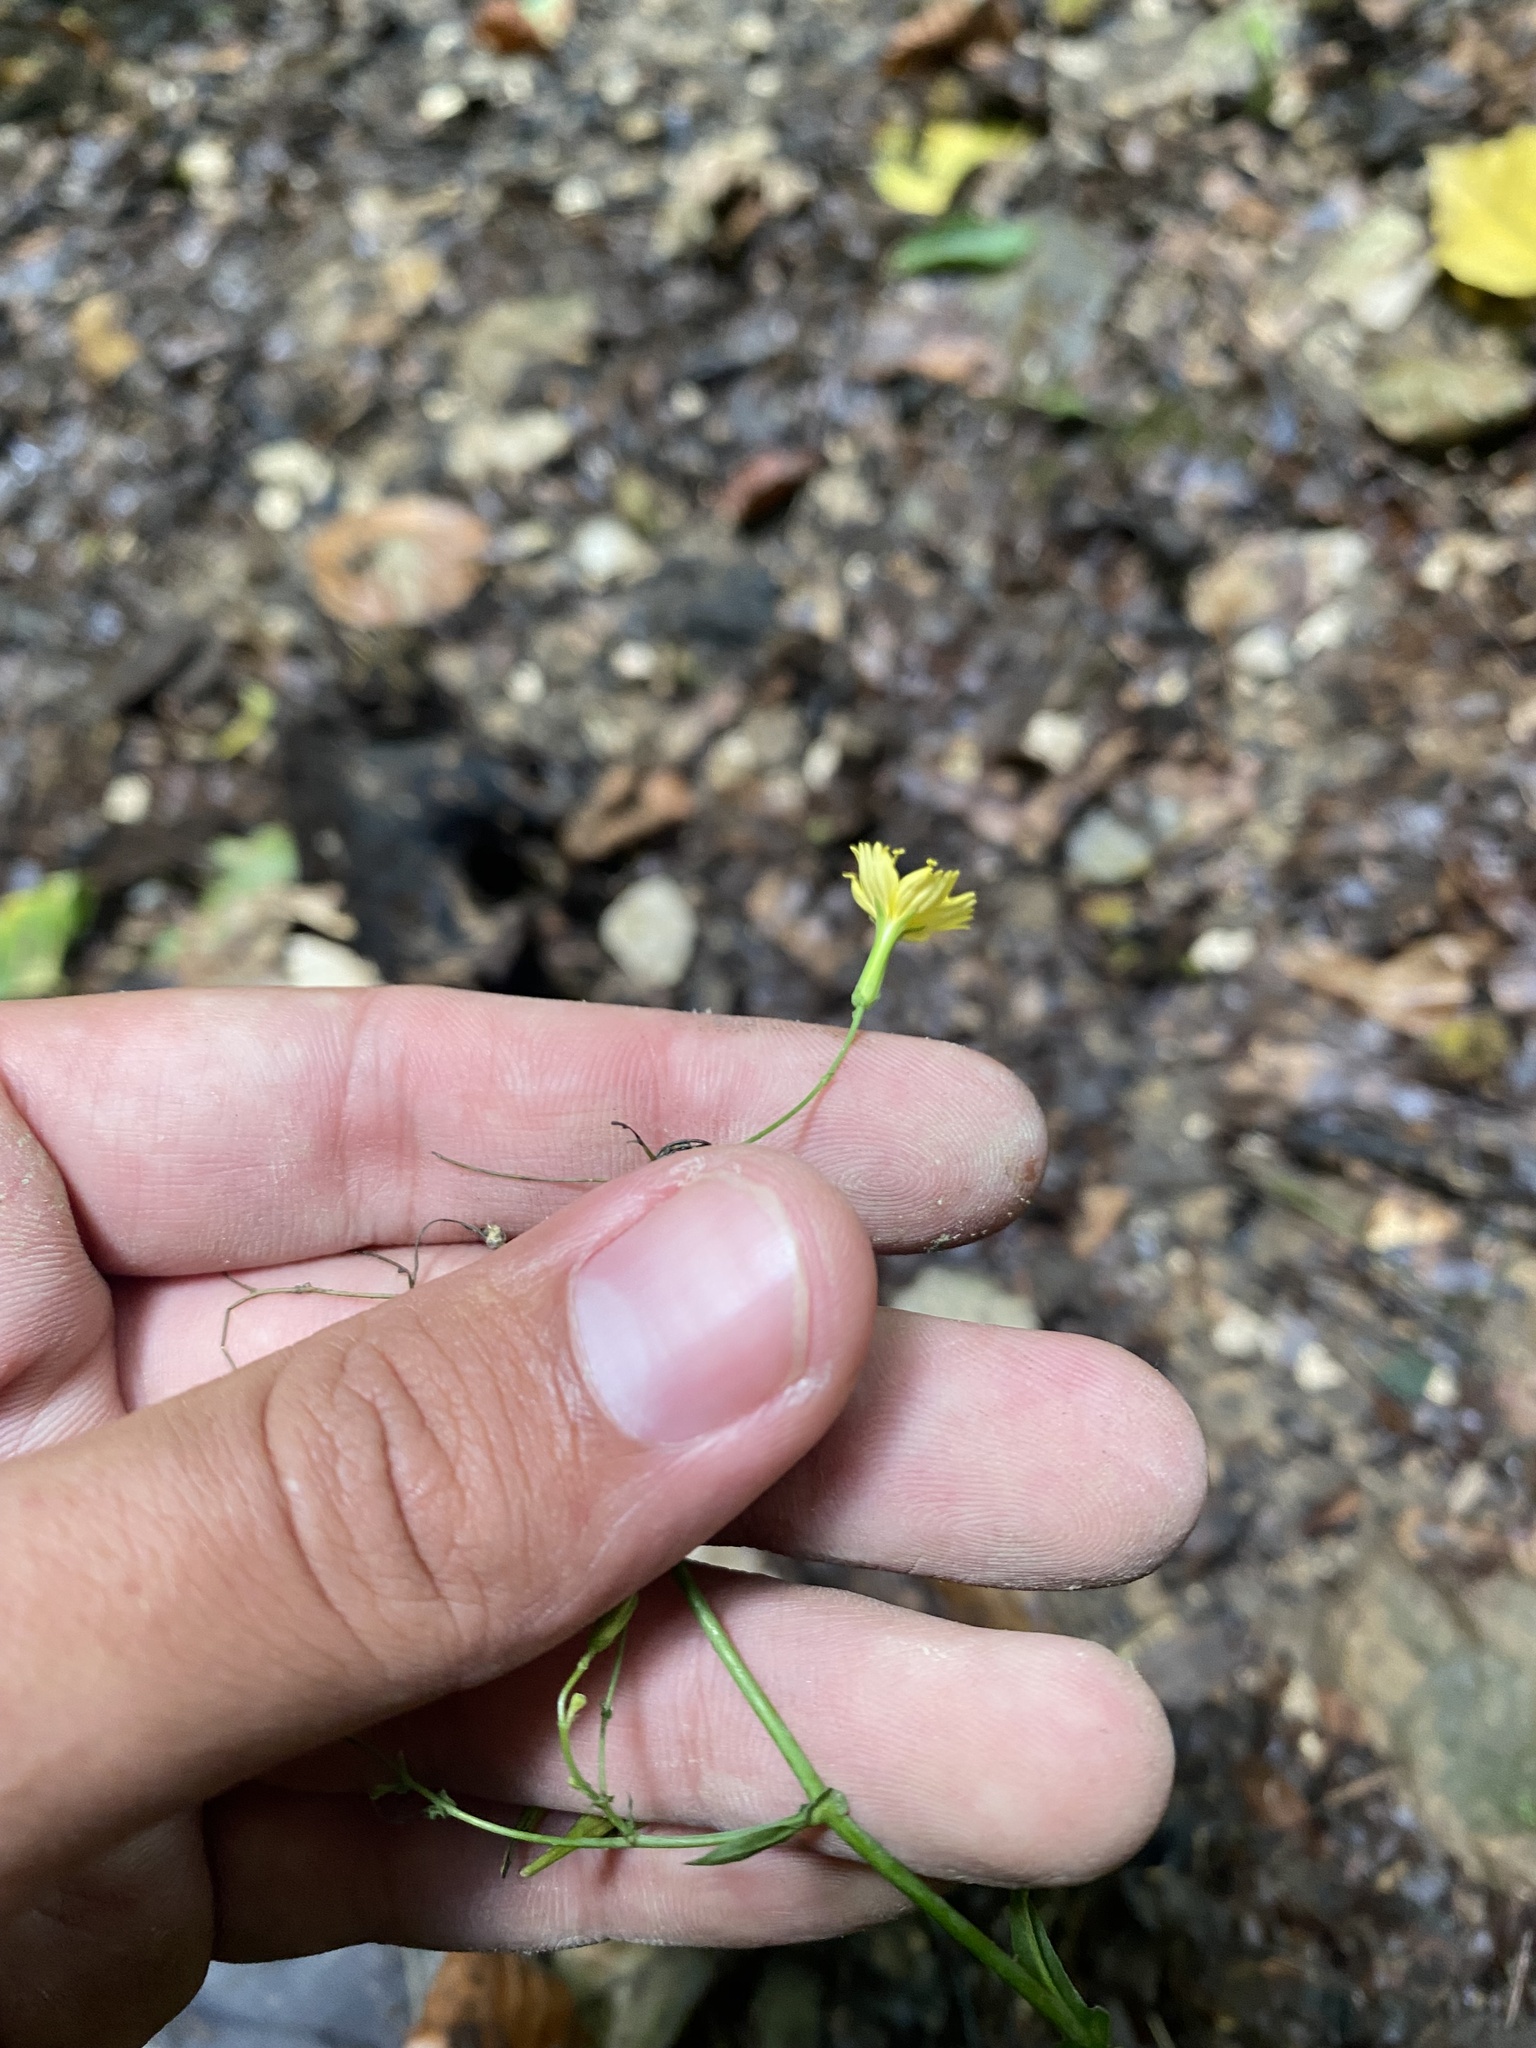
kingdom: Plantae
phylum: Tracheophyta
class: Magnoliopsida
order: Asterales
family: Asteraceae
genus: Mycelis
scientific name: Mycelis muralis
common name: Wall lettuce
